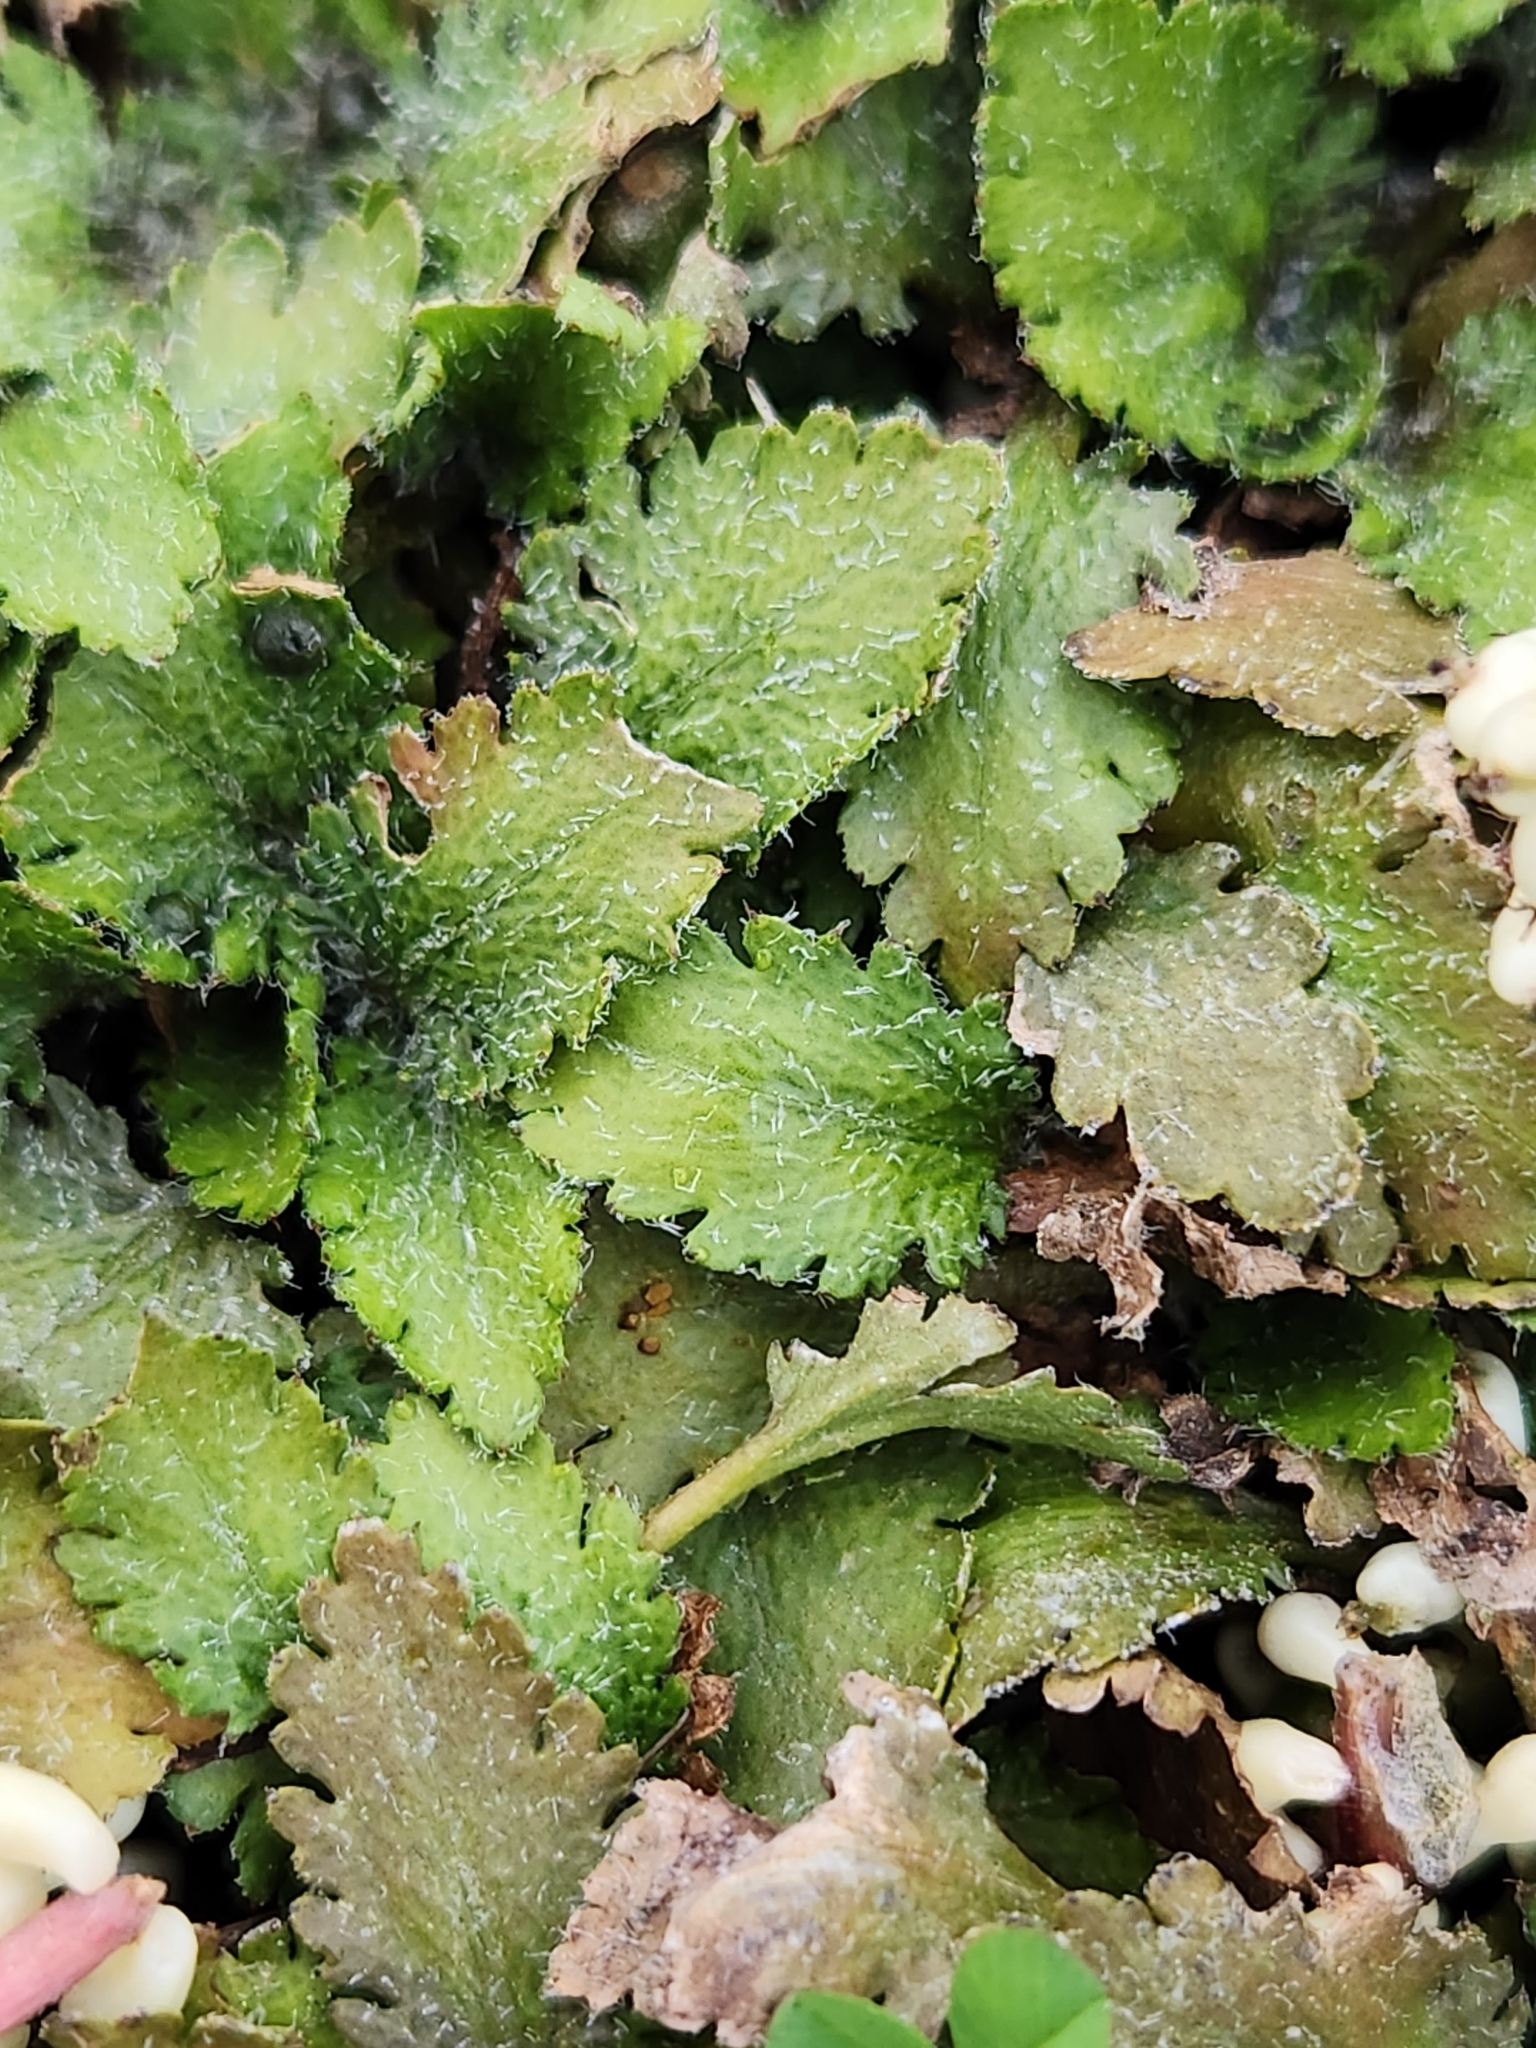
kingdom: Plantae
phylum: Tracheophyta
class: Magnoliopsida
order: Gunnerales
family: Gunneraceae
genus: Gunnera
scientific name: Gunnera dentata
